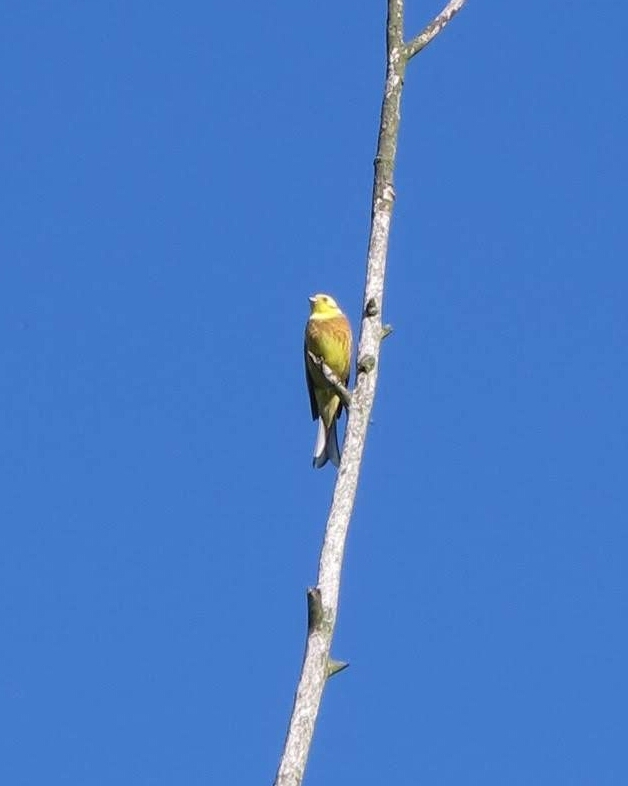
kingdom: Animalia
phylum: Chordata
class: Aves
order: Passeriformes
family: Emberizidae
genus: Emberiza
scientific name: Emberiza citrinella
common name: Yellowhammer
